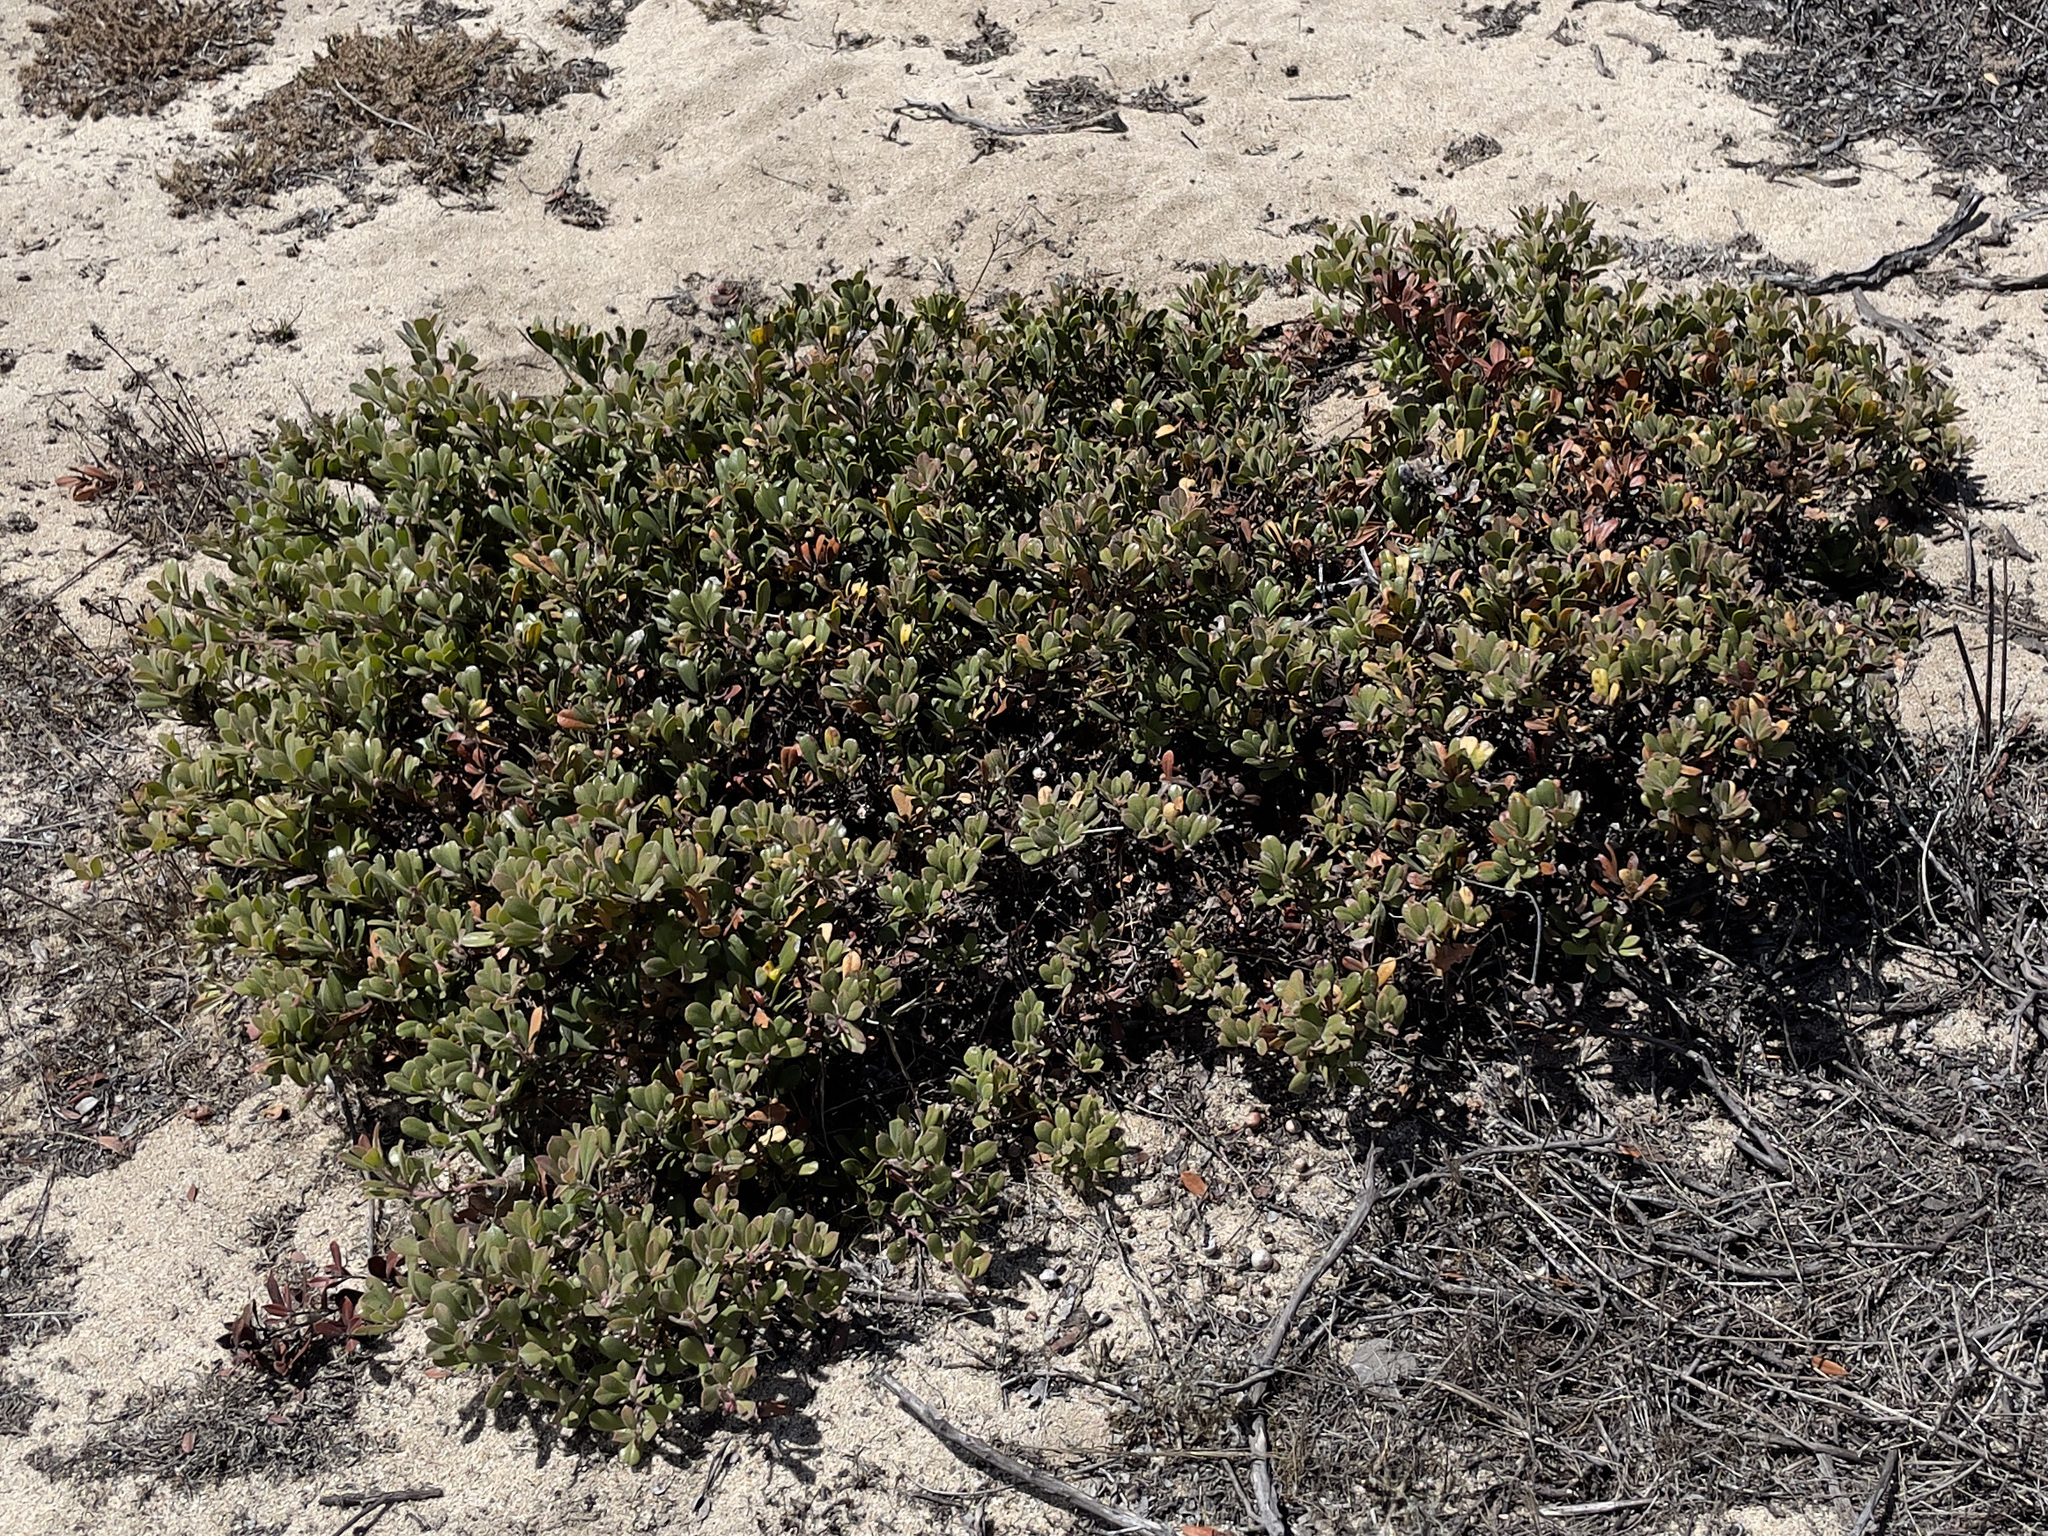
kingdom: Plantae
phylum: Tracheophyta
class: Magnoliopsida
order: Ericales
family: Ericaceae
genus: Arctostaphylos
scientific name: Arctostaphylos pumila
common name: Sandmat manzanita
